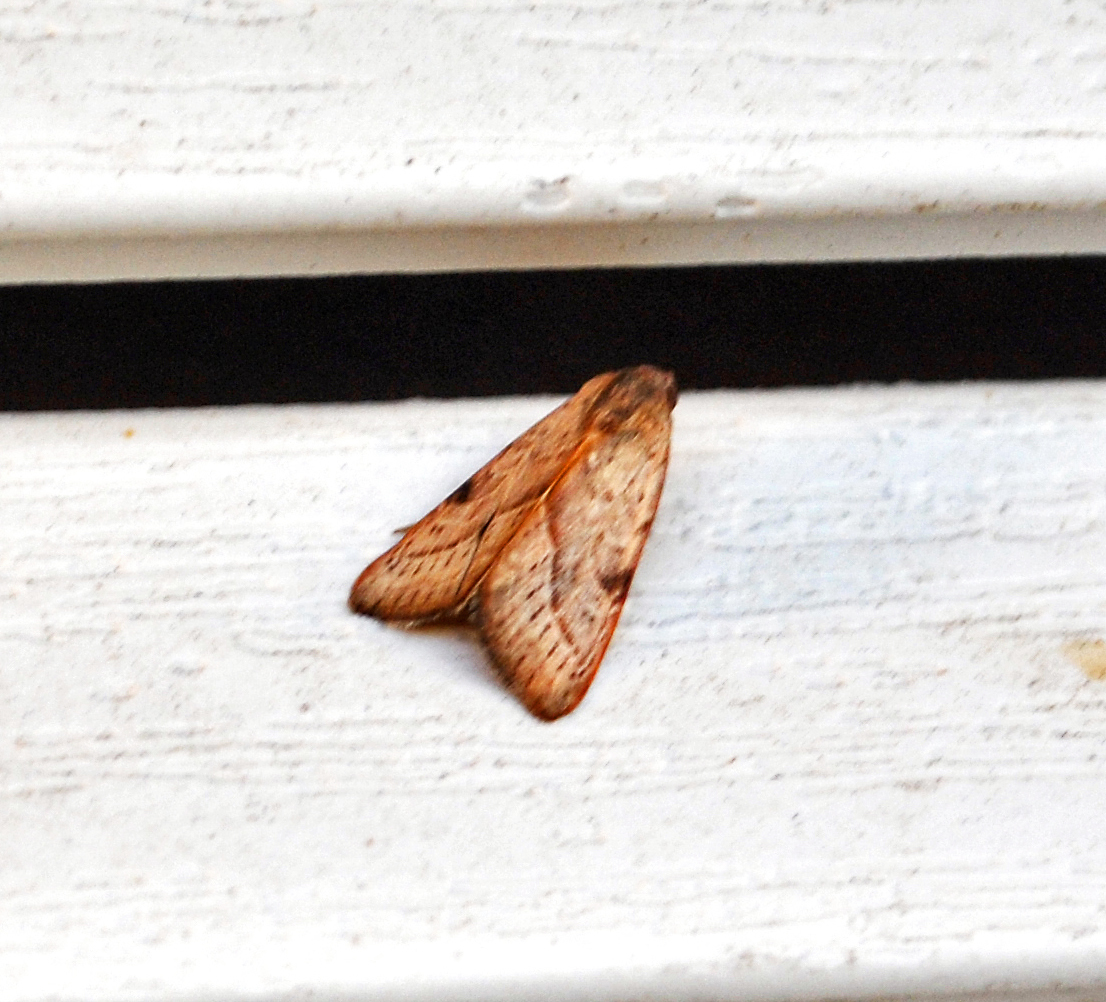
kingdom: Animalia
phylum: Arthropoda
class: Insecta
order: Lepidoptera
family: Noctuidae
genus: Galgula
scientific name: Galgula partita
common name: Wedgeling
